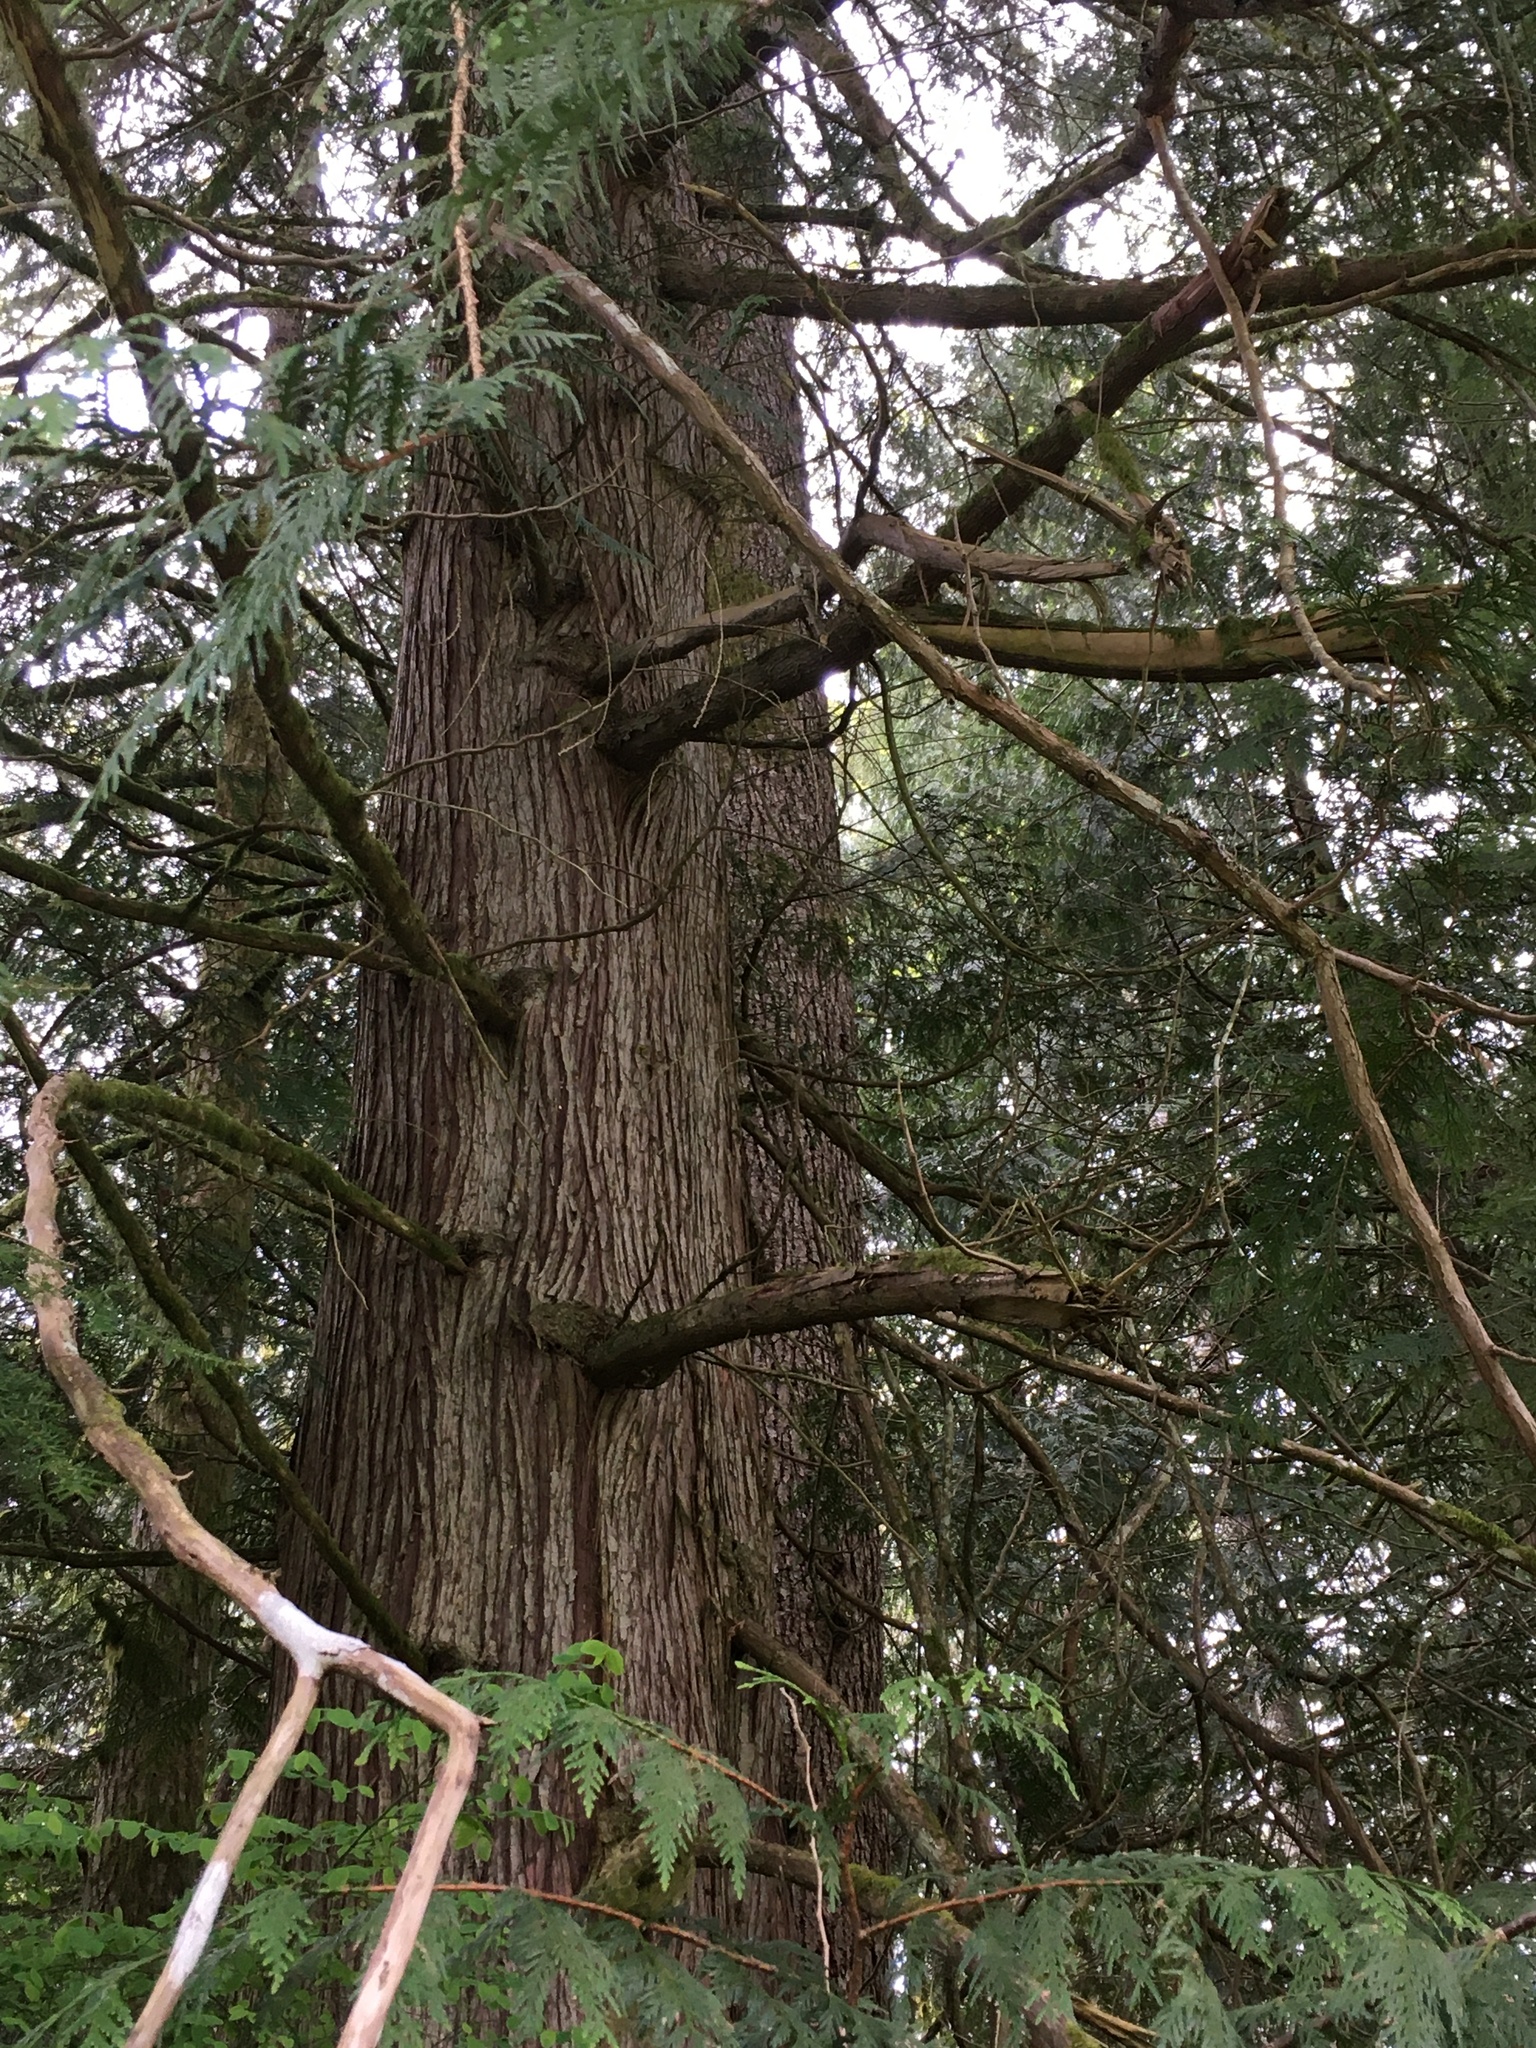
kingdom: Plantae
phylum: Tracheophyta
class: Pinopsida
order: Pinales
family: Cupressaceae
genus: Thuja
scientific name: Thuja plicata
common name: Western red-cedar
